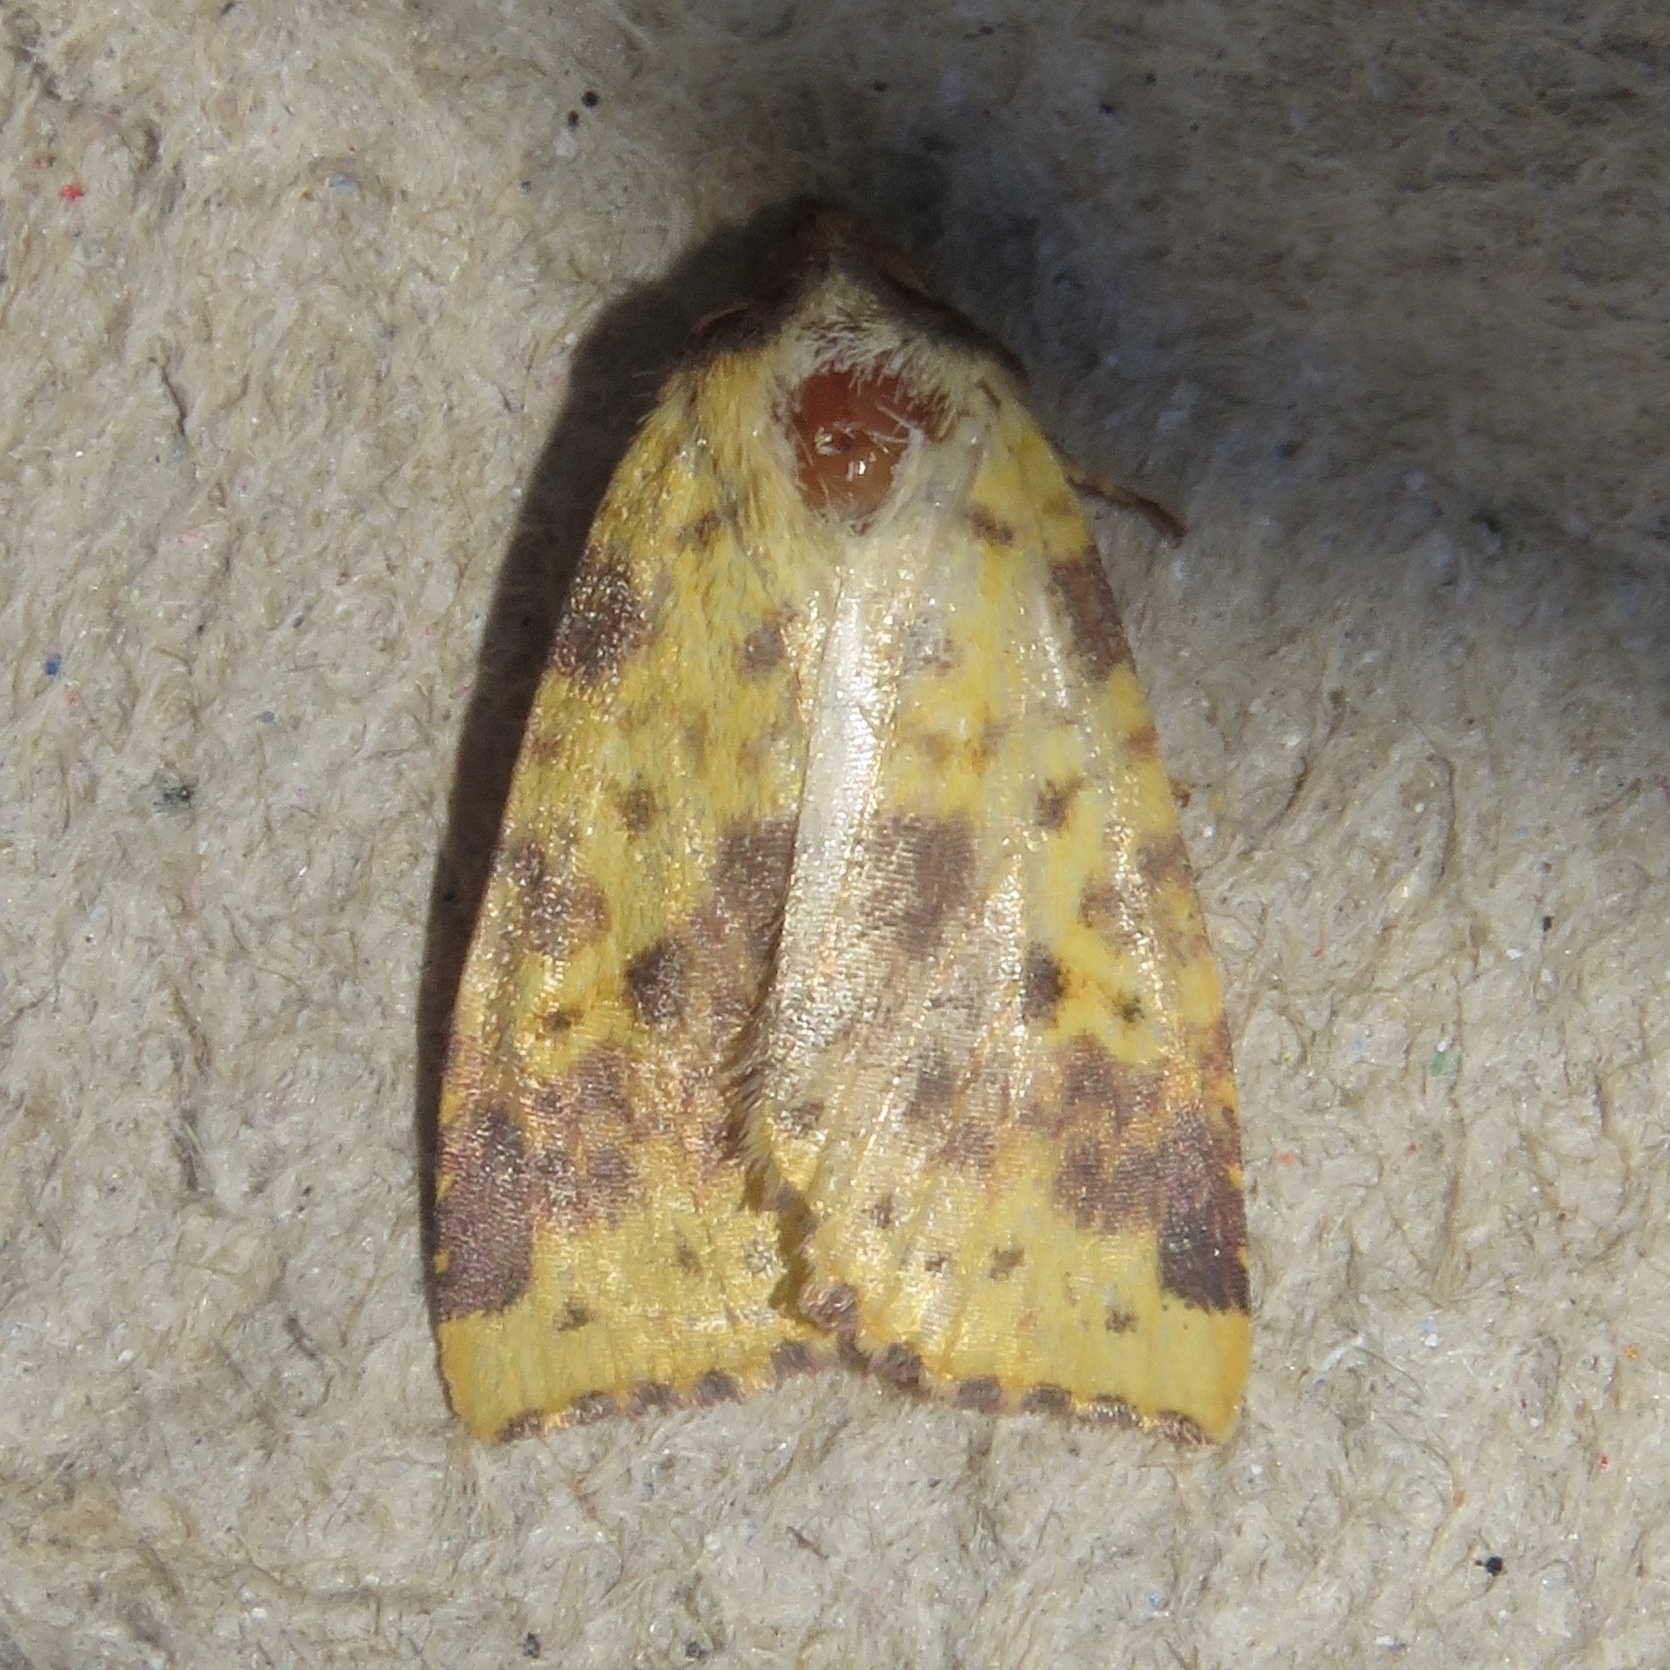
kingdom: Animalia
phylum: Arthropoda
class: Insecta
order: Lepidoptera
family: Noctuidae
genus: Xanthia
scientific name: Xanthia tatago
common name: Pink-banded sallow
